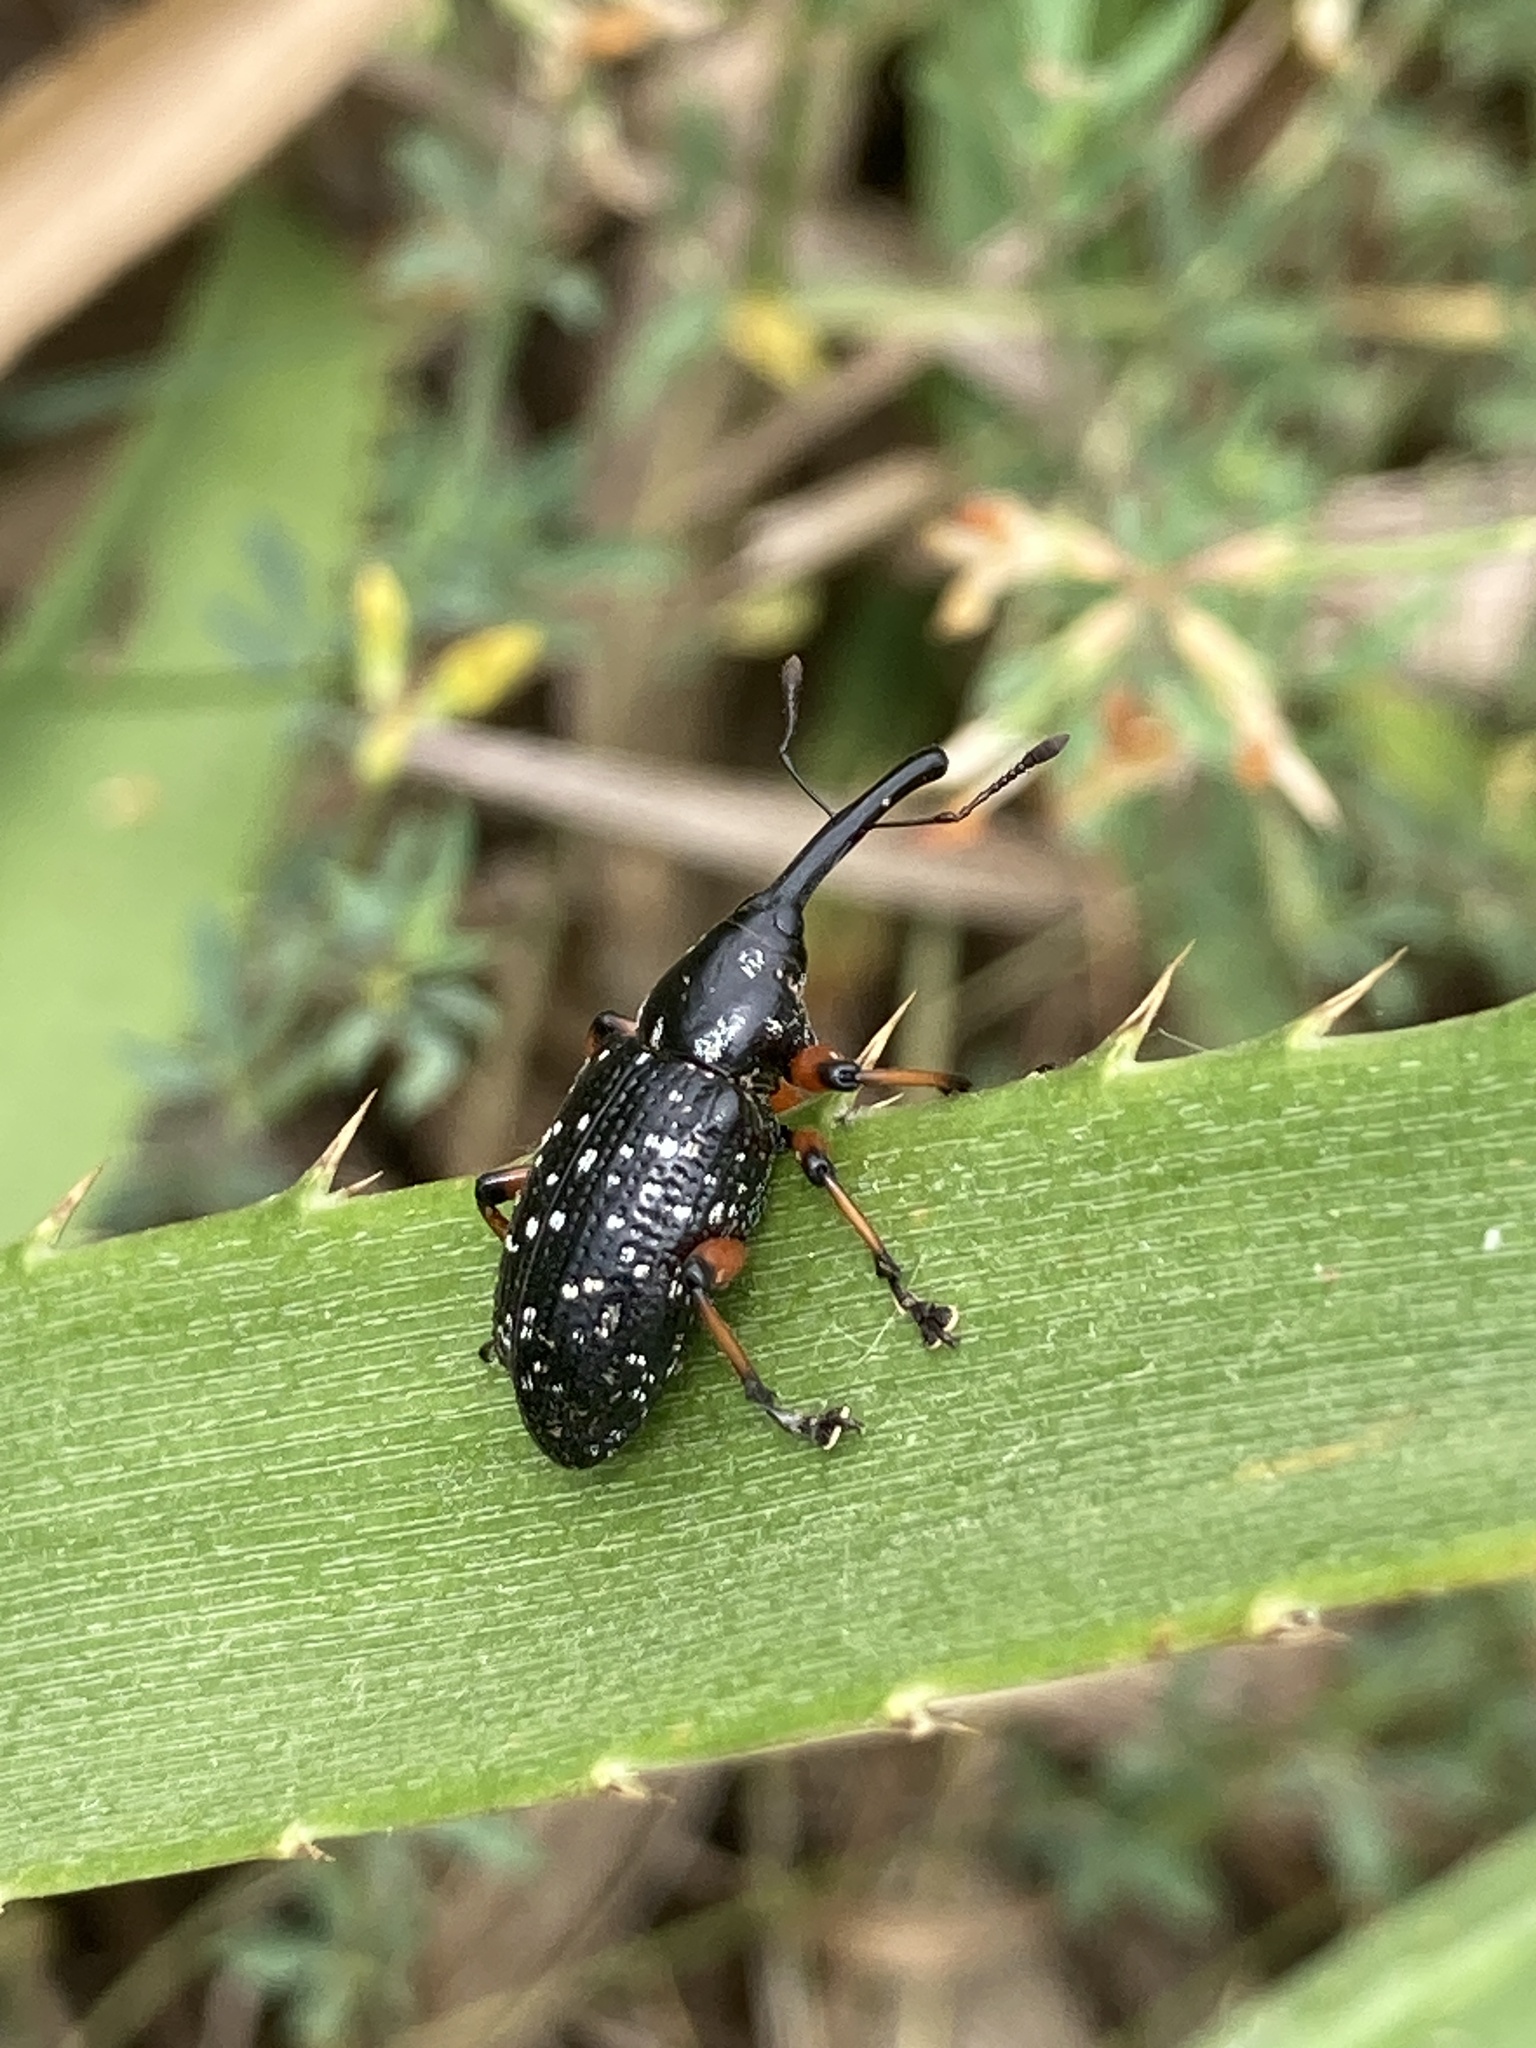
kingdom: Animalia
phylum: Arthropoda
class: Insecta
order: Coleoptera
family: Curculionidae
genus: Heilipodus
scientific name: Heilipodus erythropus
